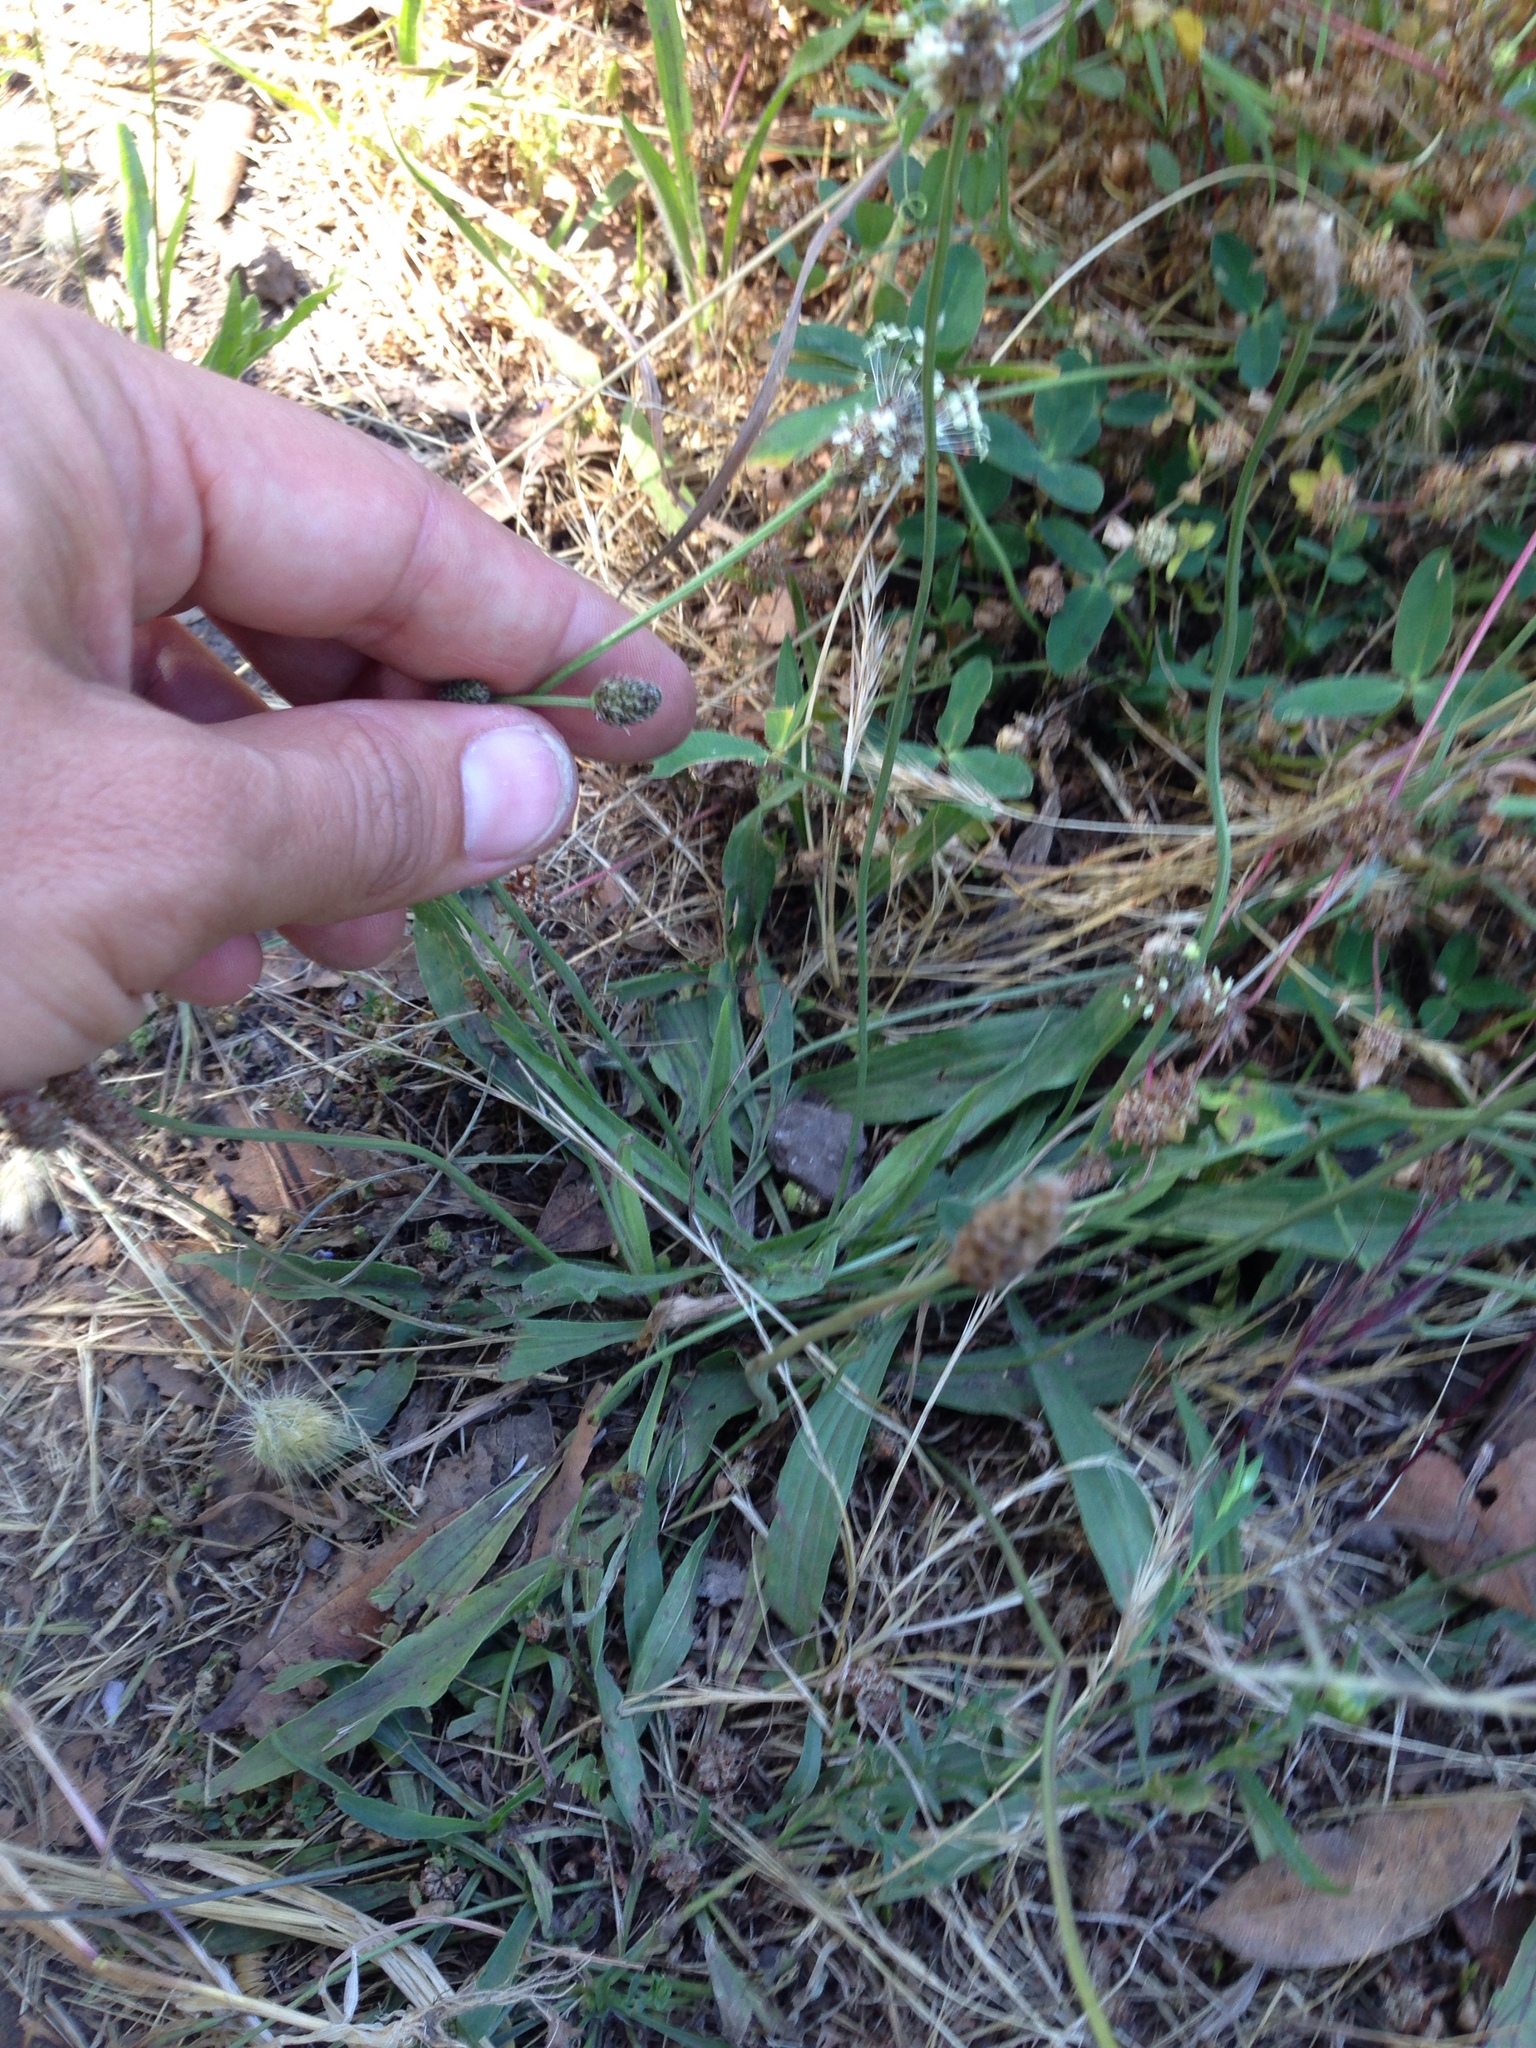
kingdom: Plantae
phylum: Tracheophyta
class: Magnoliopsida
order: Lamiales
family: Plantaginaceae
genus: Plantago
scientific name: Plantago lanceolata
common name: Ribwort plantain
